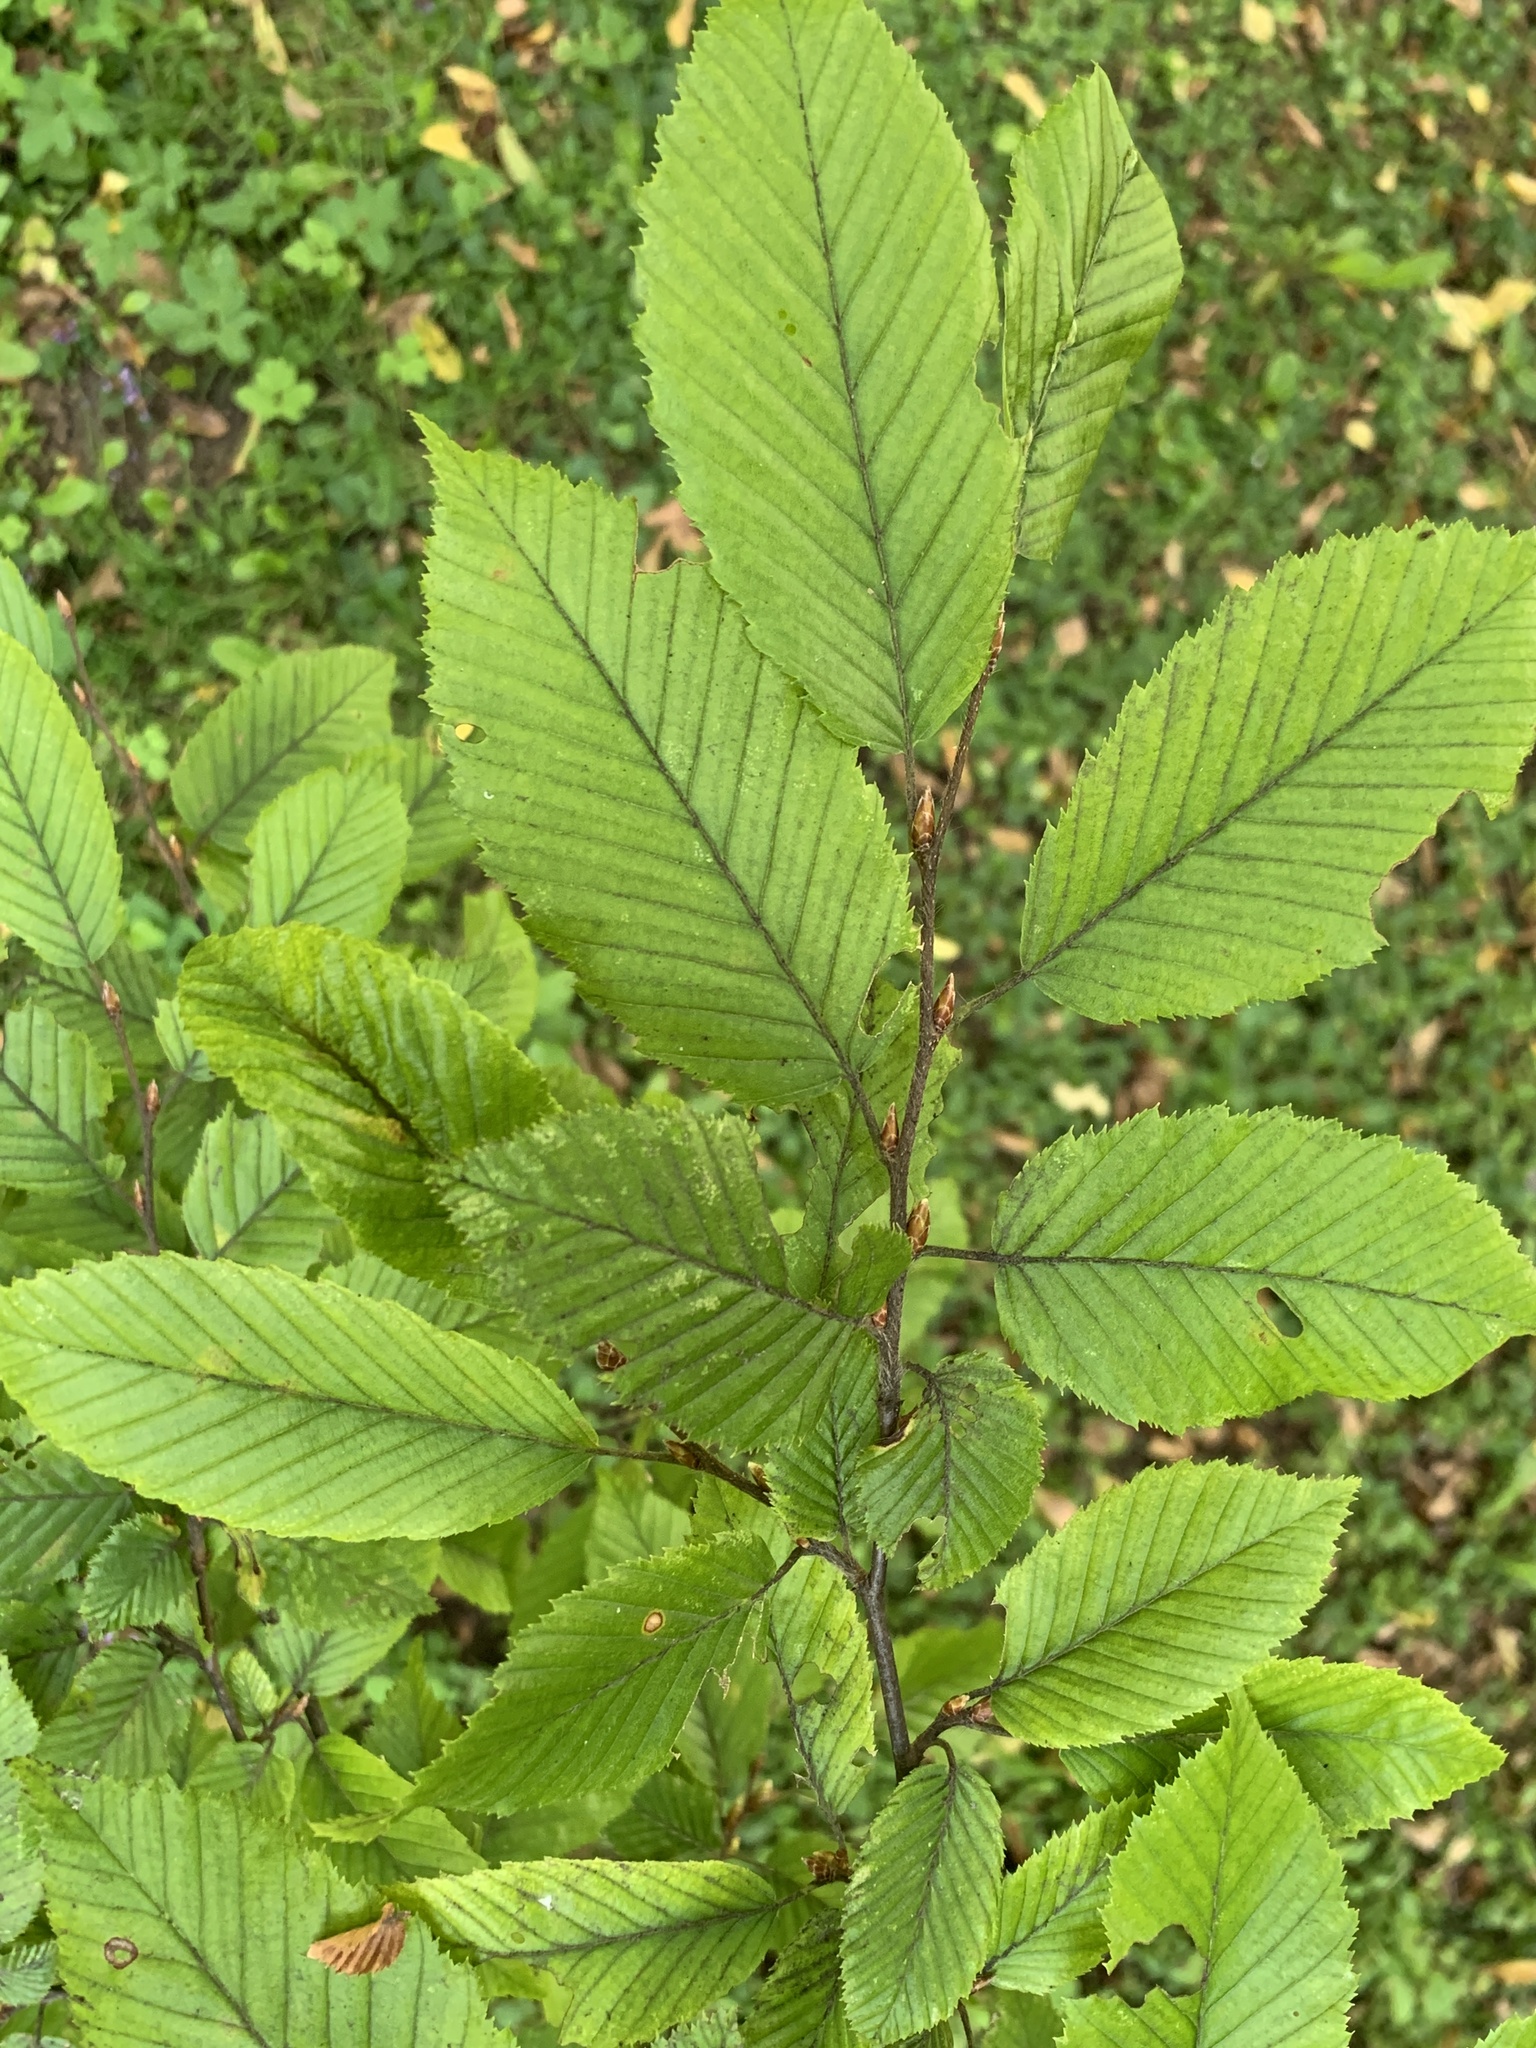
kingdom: Plantae
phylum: Tracheophyta
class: Magnoliopsida
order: Fagales
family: Betulaceae
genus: Carpinus
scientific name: Carpinus betulus
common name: Hornbeam
